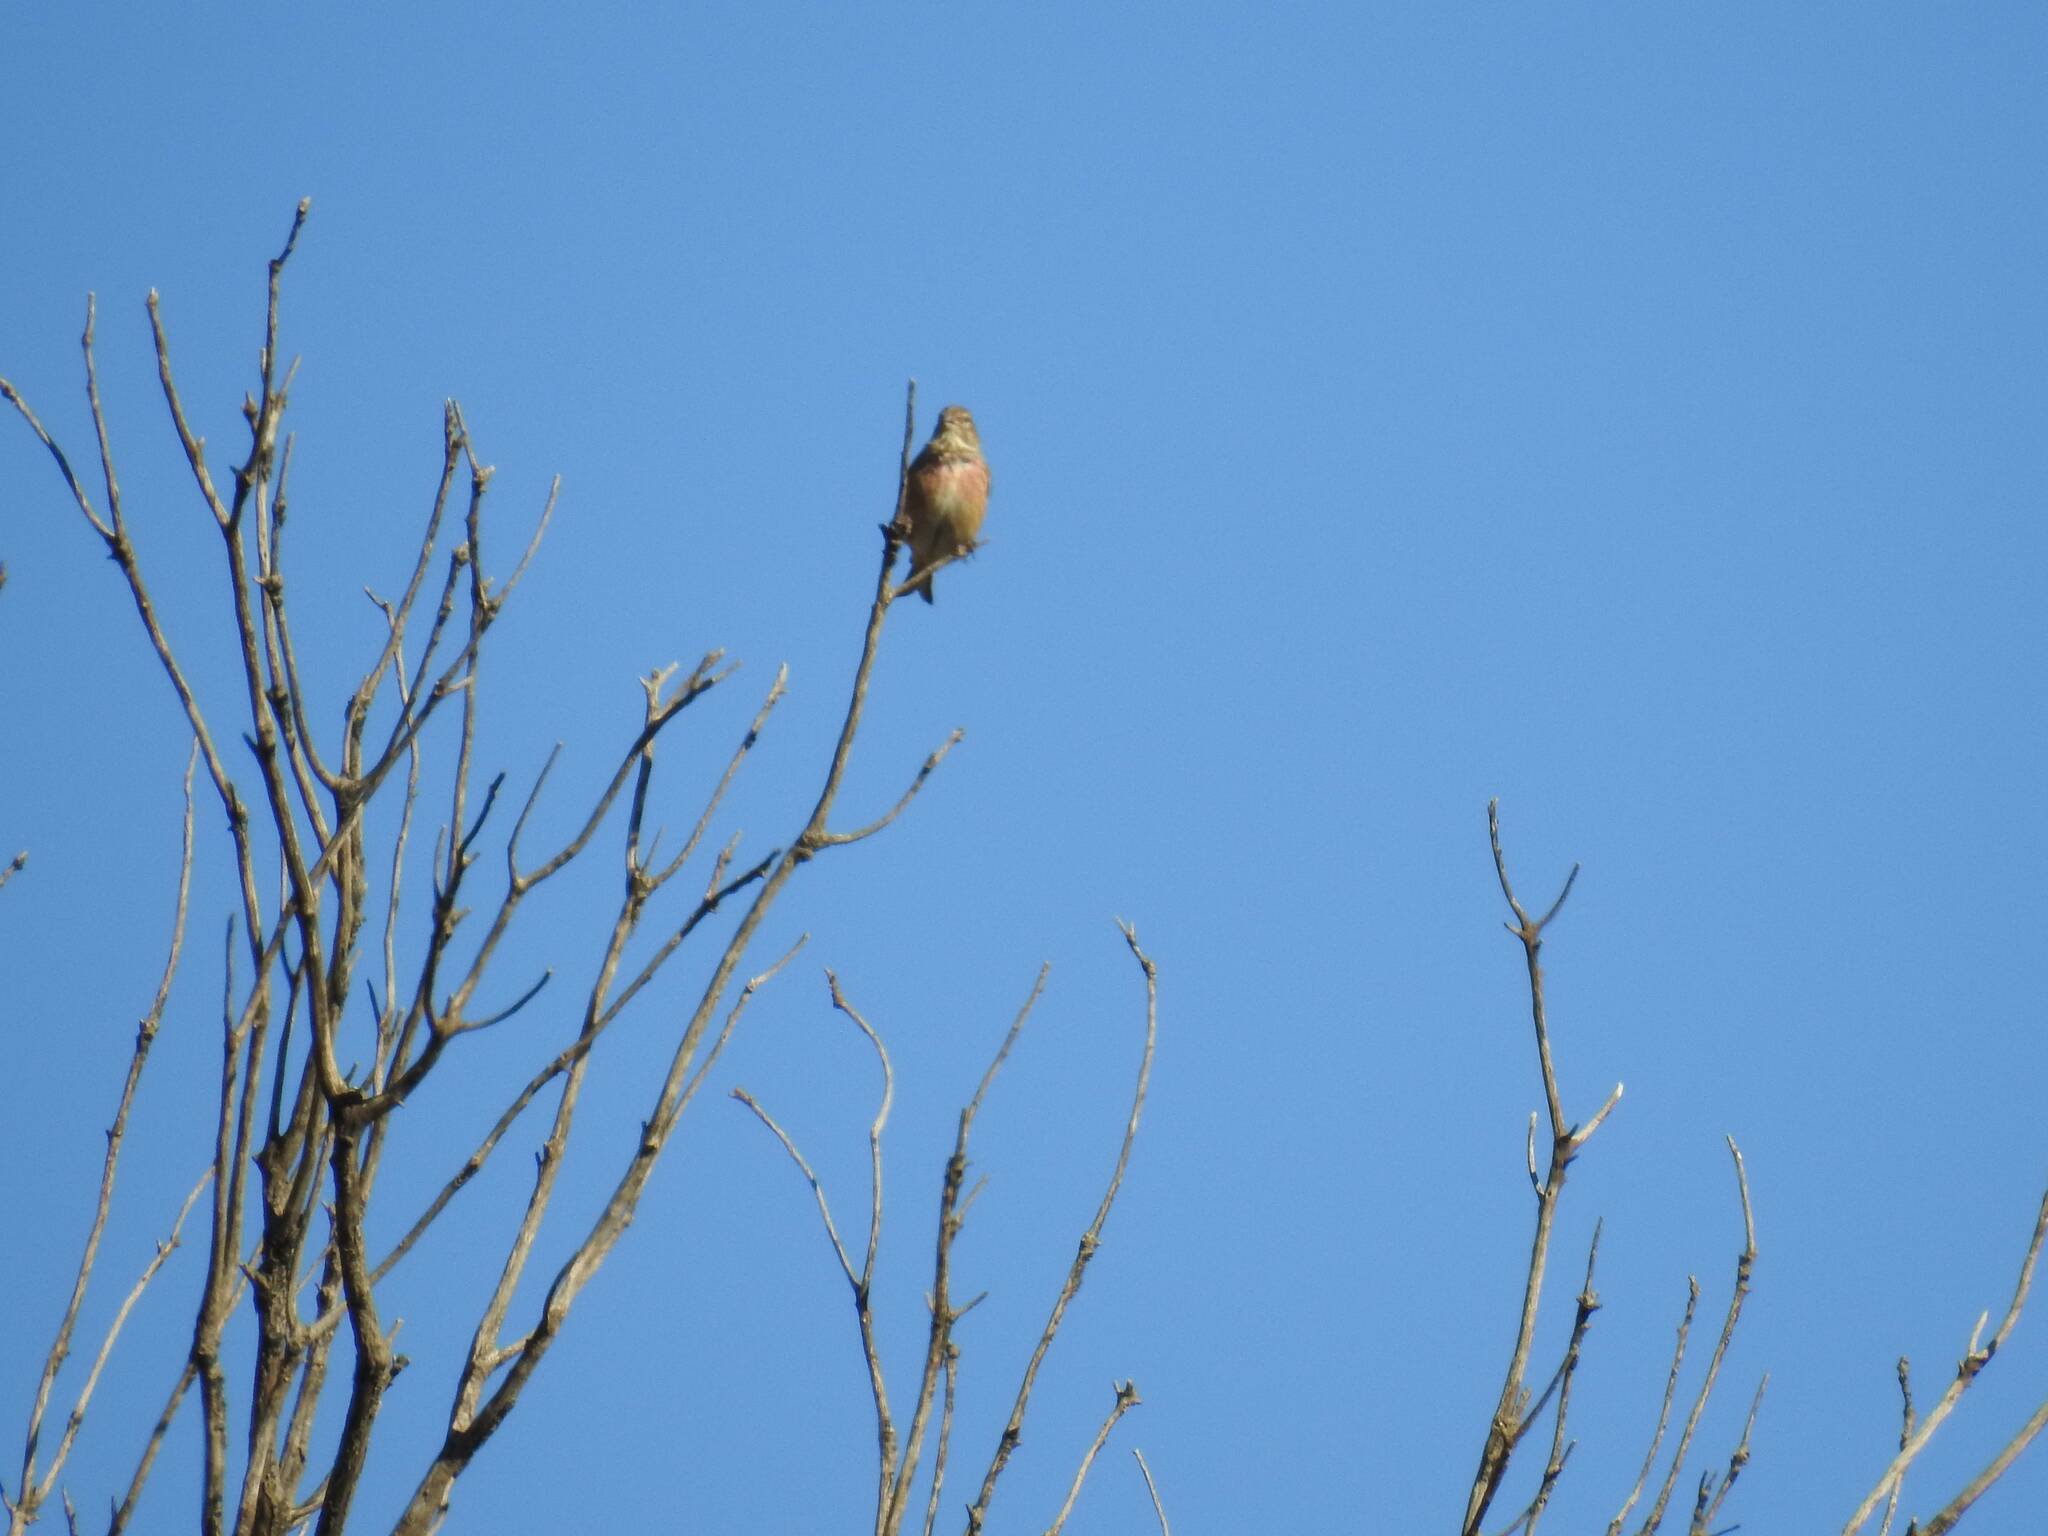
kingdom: Animalia
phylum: Chordata
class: Aves
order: Passeriformes
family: Fringillidae
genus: Linaria
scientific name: Linaria cannabina
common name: Common linnet
